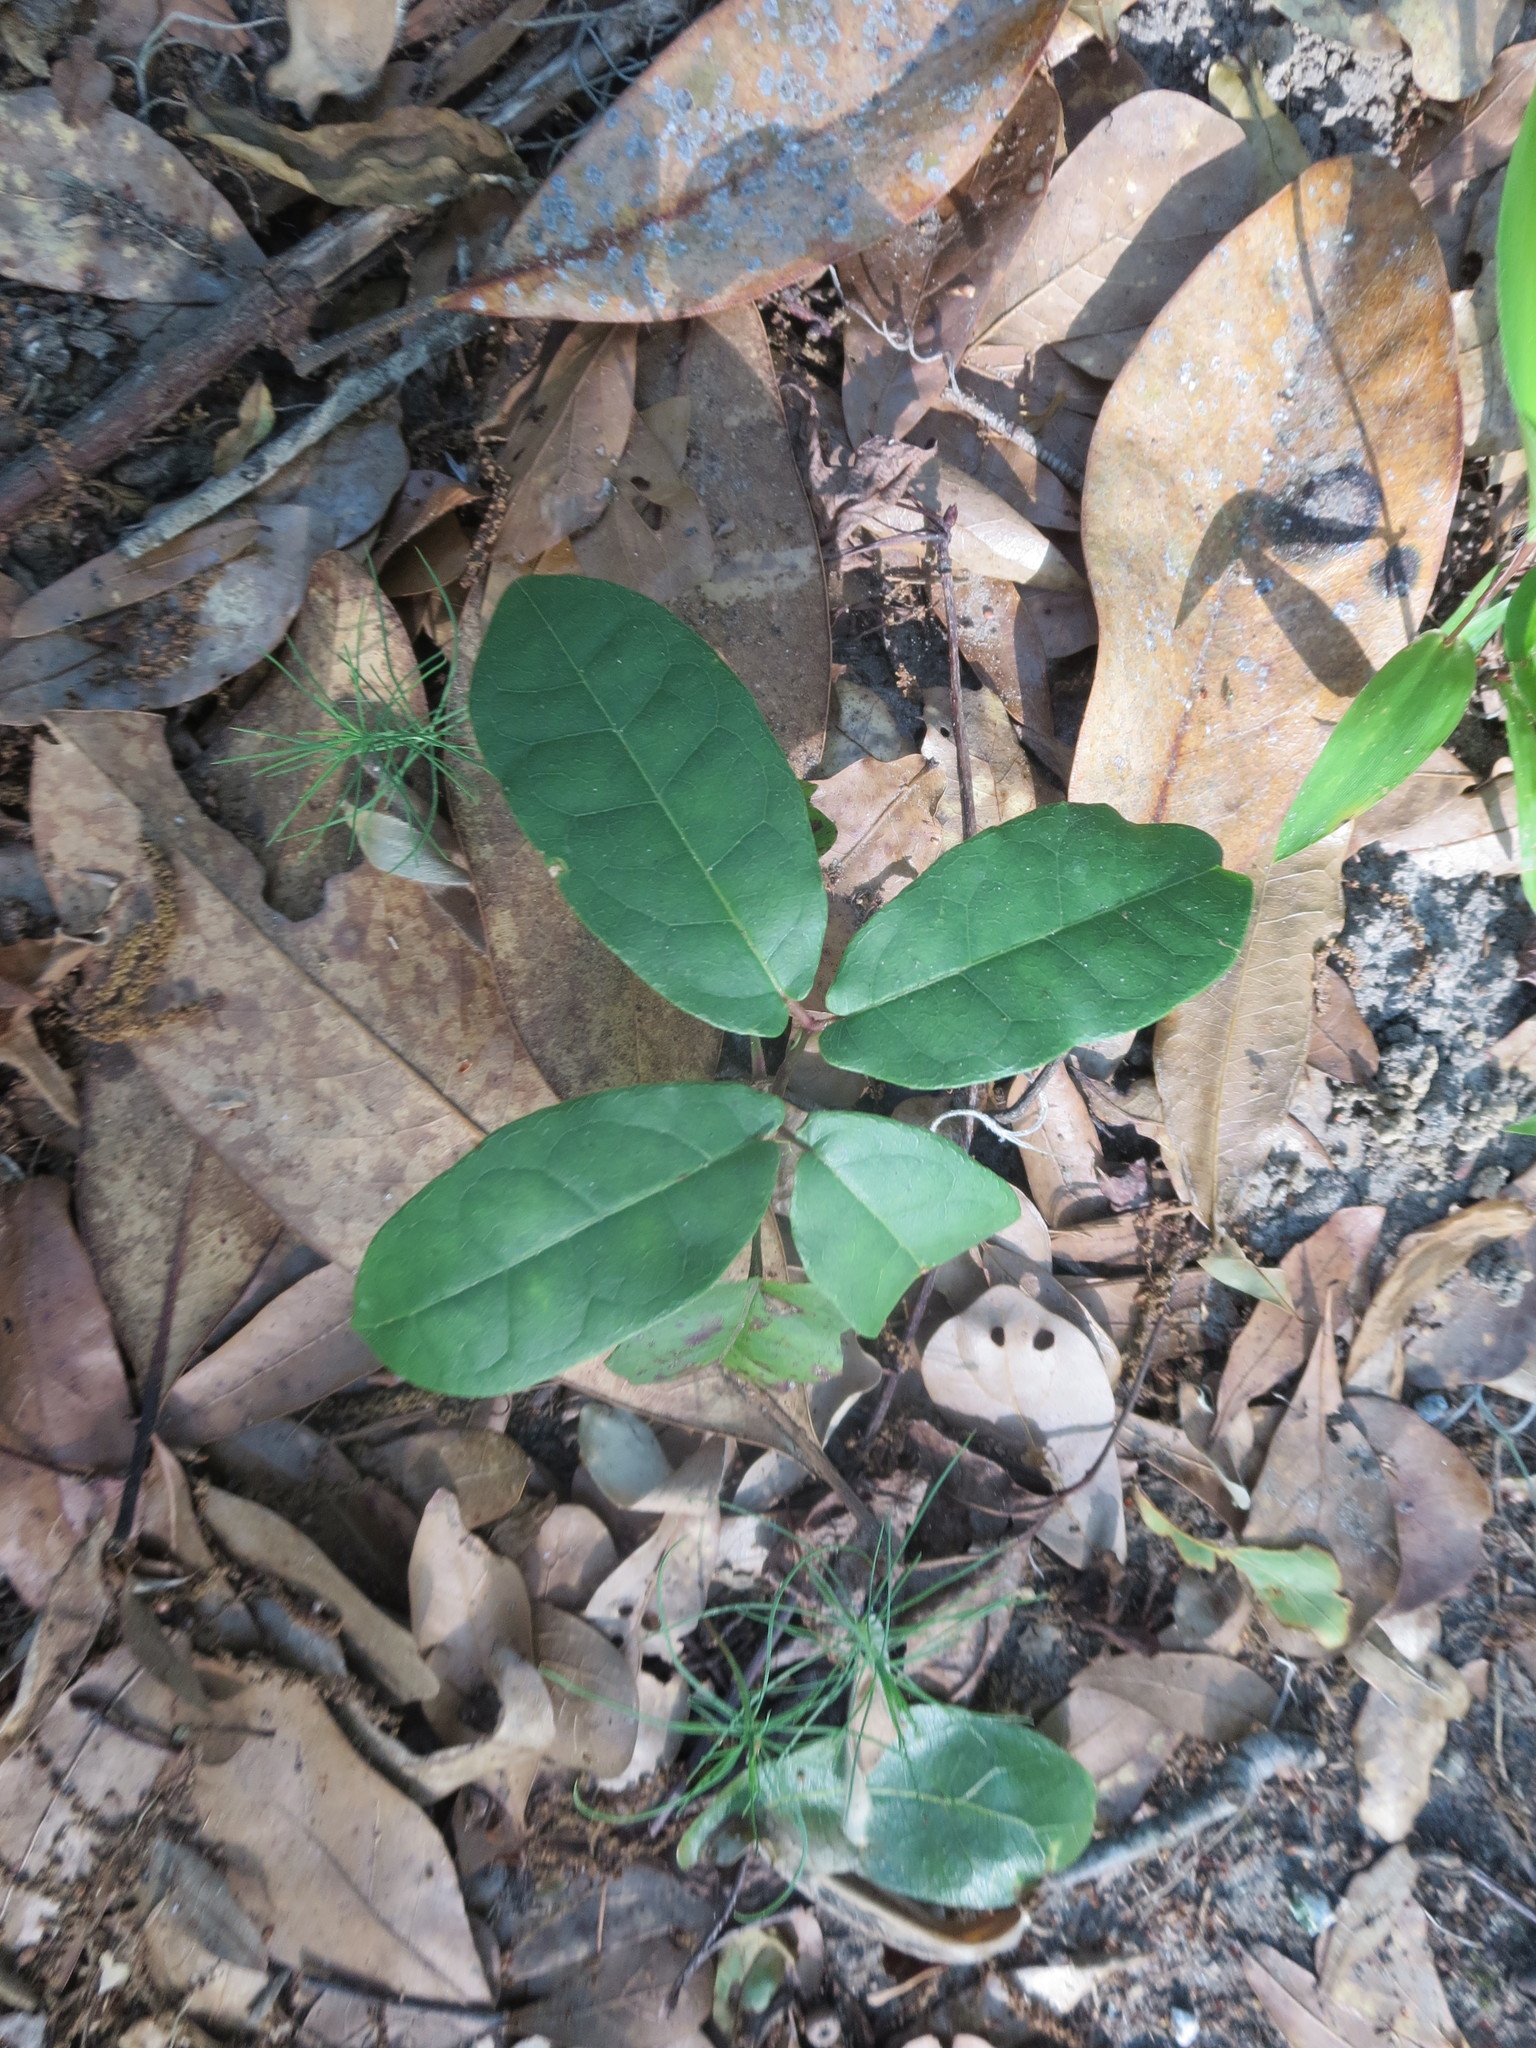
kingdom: Plantae
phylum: Tracheophyta
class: Magnoliopsida
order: Lamiales
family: Bignoniaceae
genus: Bignonia
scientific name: Bignonia capreolata
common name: Crossvine
